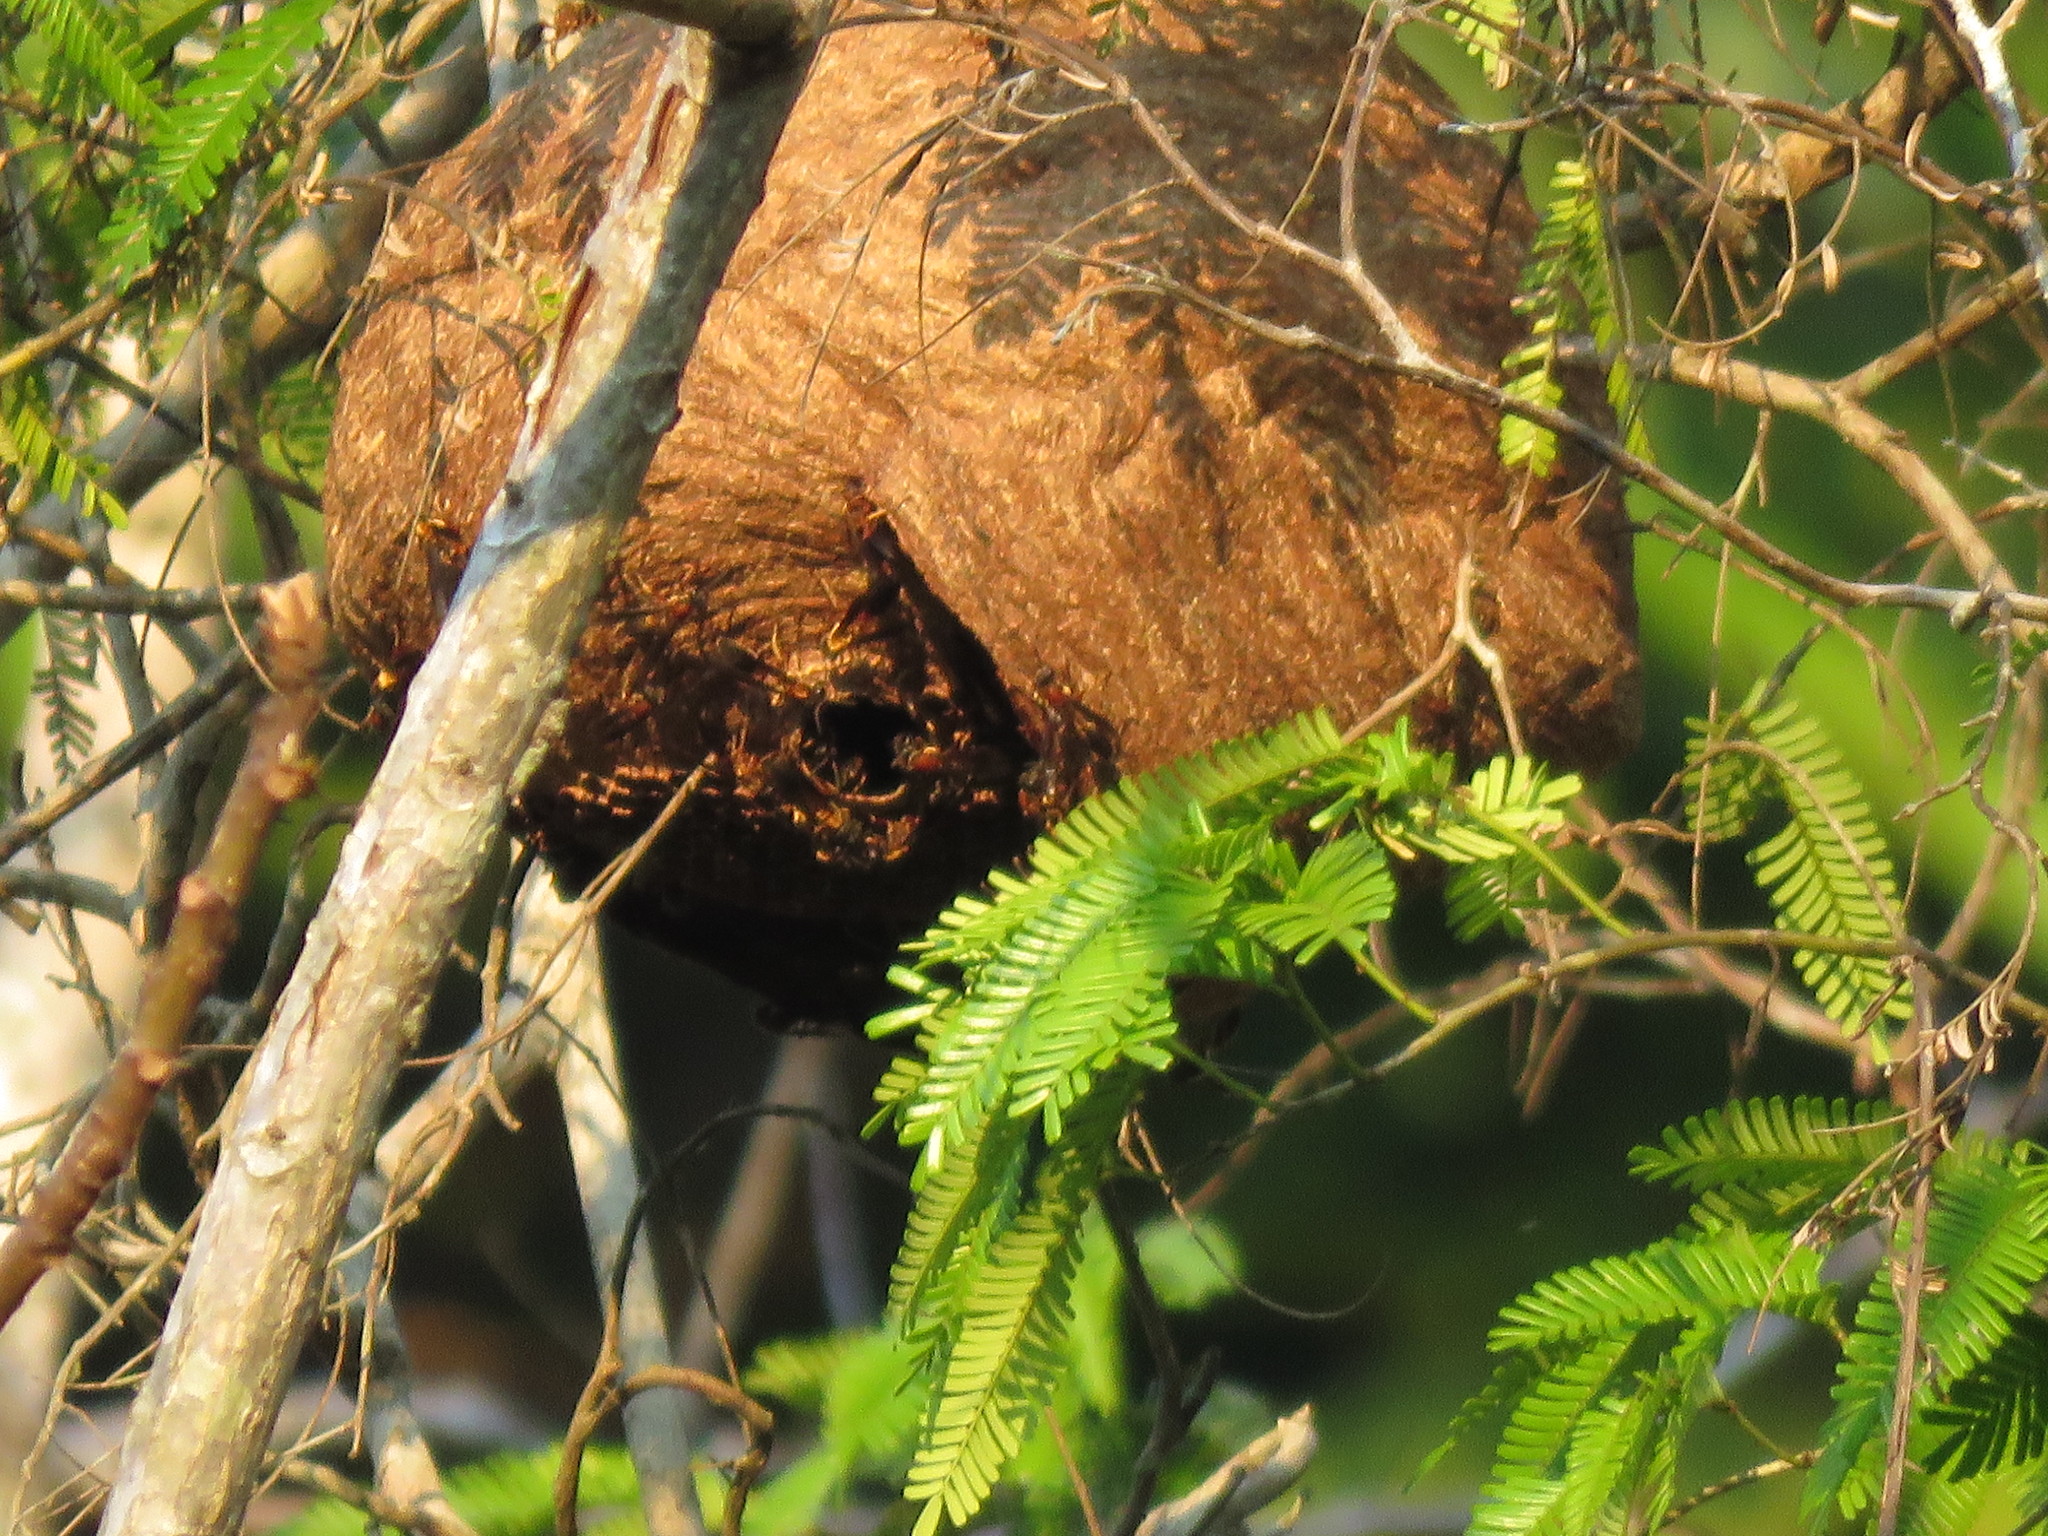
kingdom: Animalia
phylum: Arthropoda
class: Insecta
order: Hymenoptera
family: Eumenidae
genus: Polybia
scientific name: Polybia sericea
